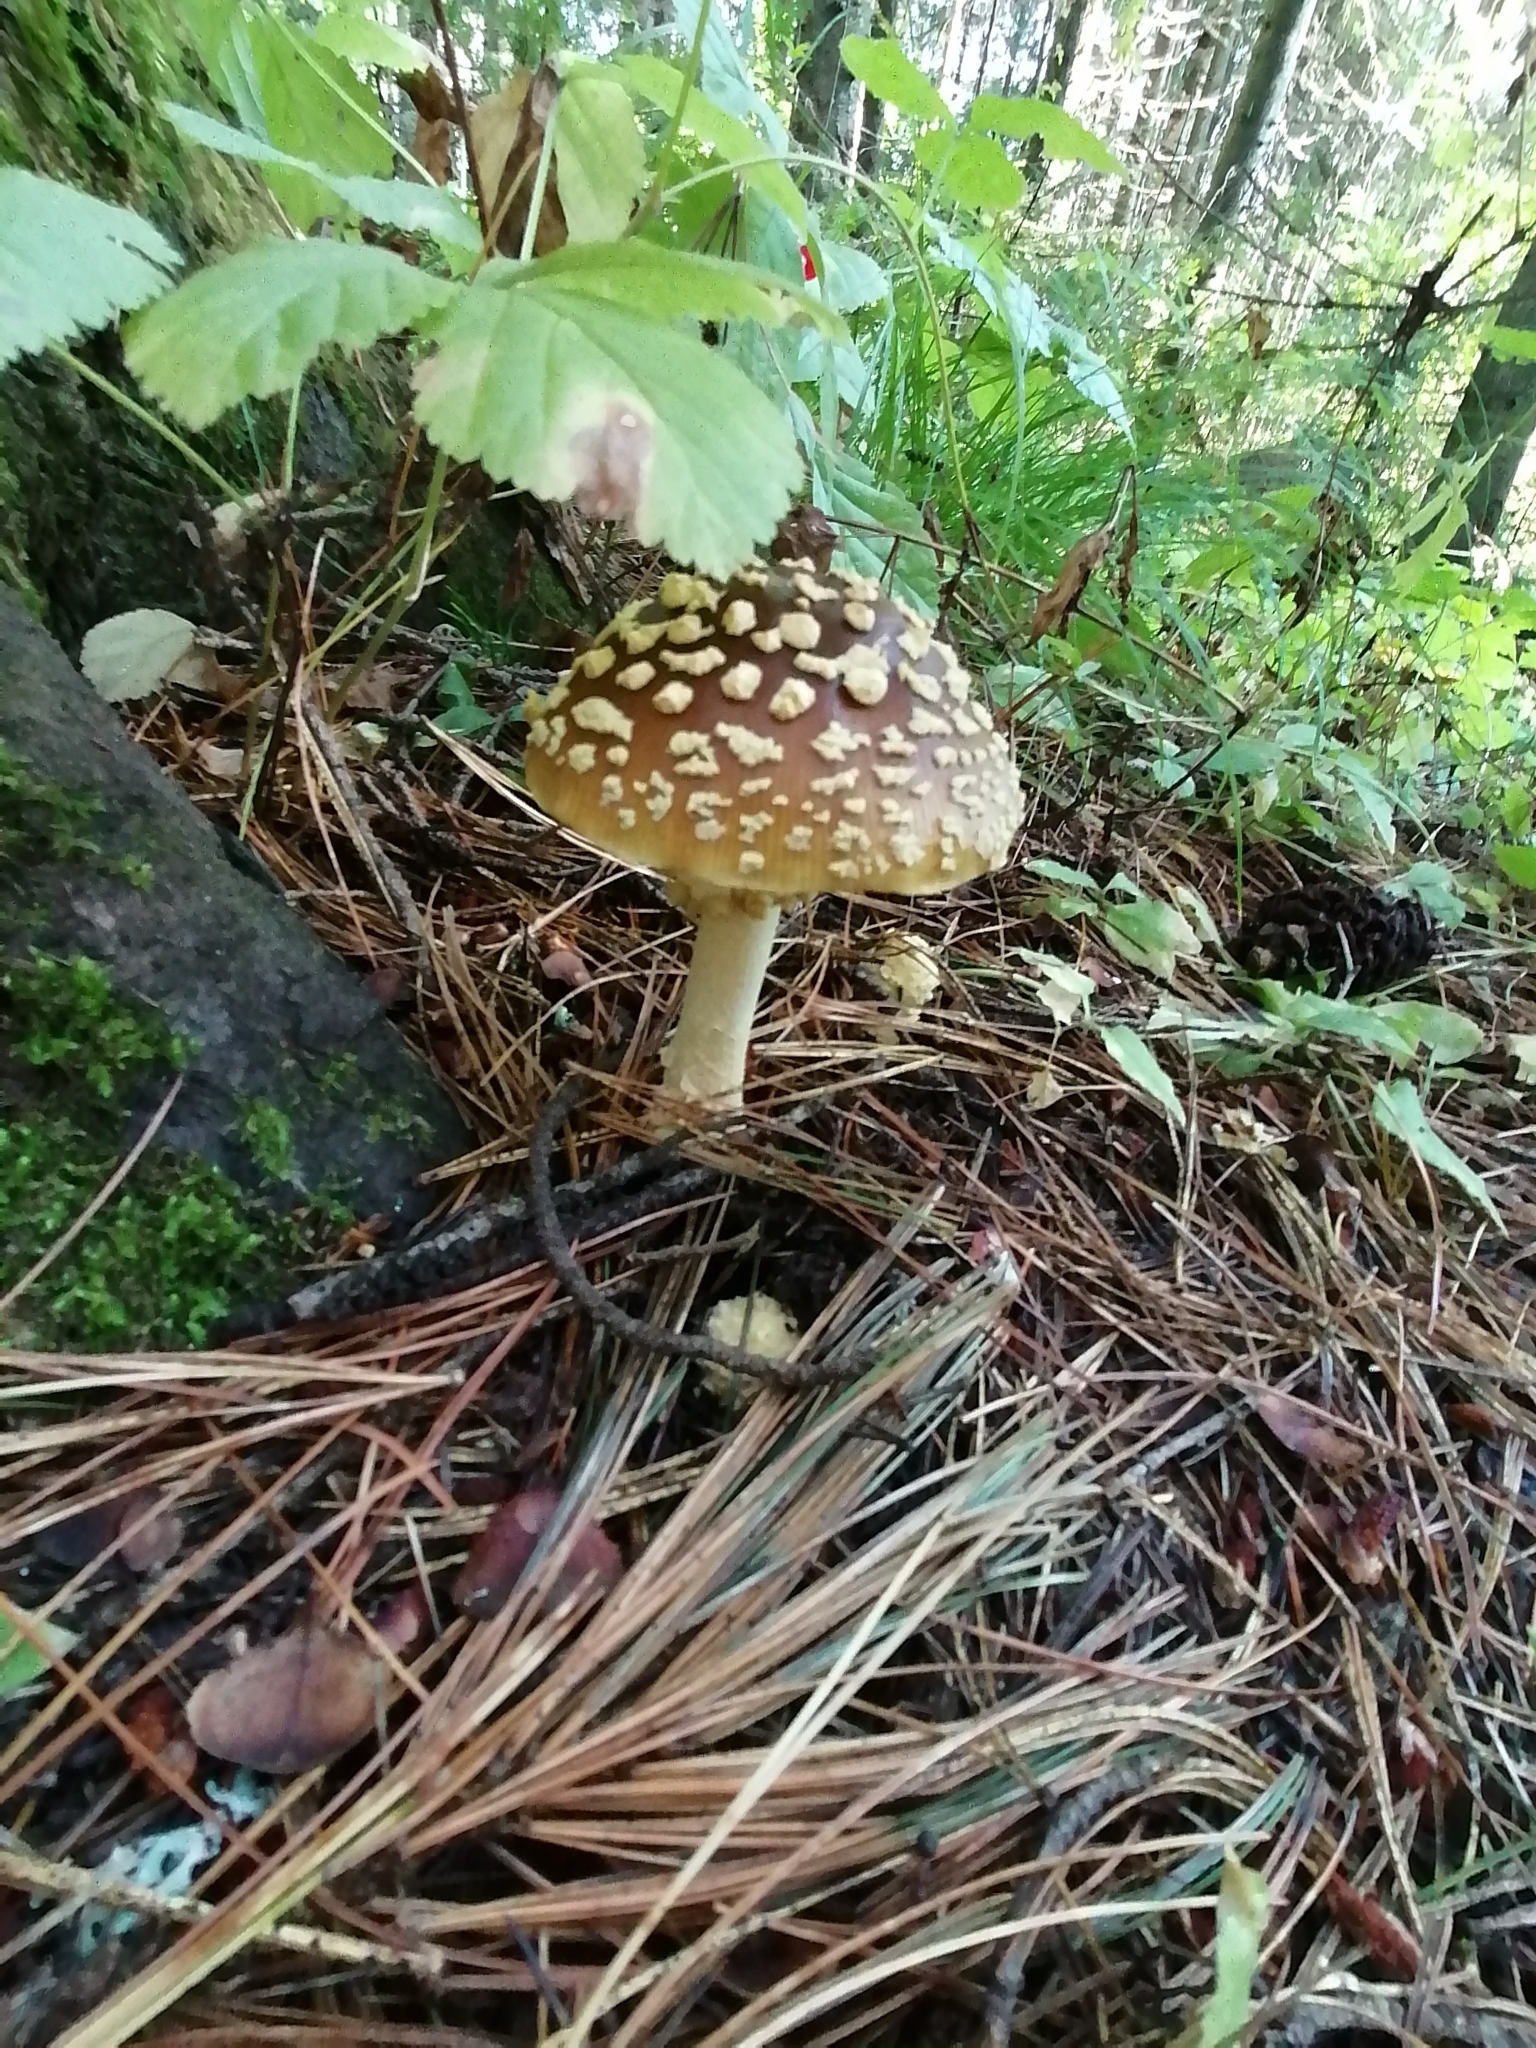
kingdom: Fungi
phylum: Basidiomycota
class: Agaricomycetes
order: Agaricales
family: Amanitaceae
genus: Amanita
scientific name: Amanita regalis
